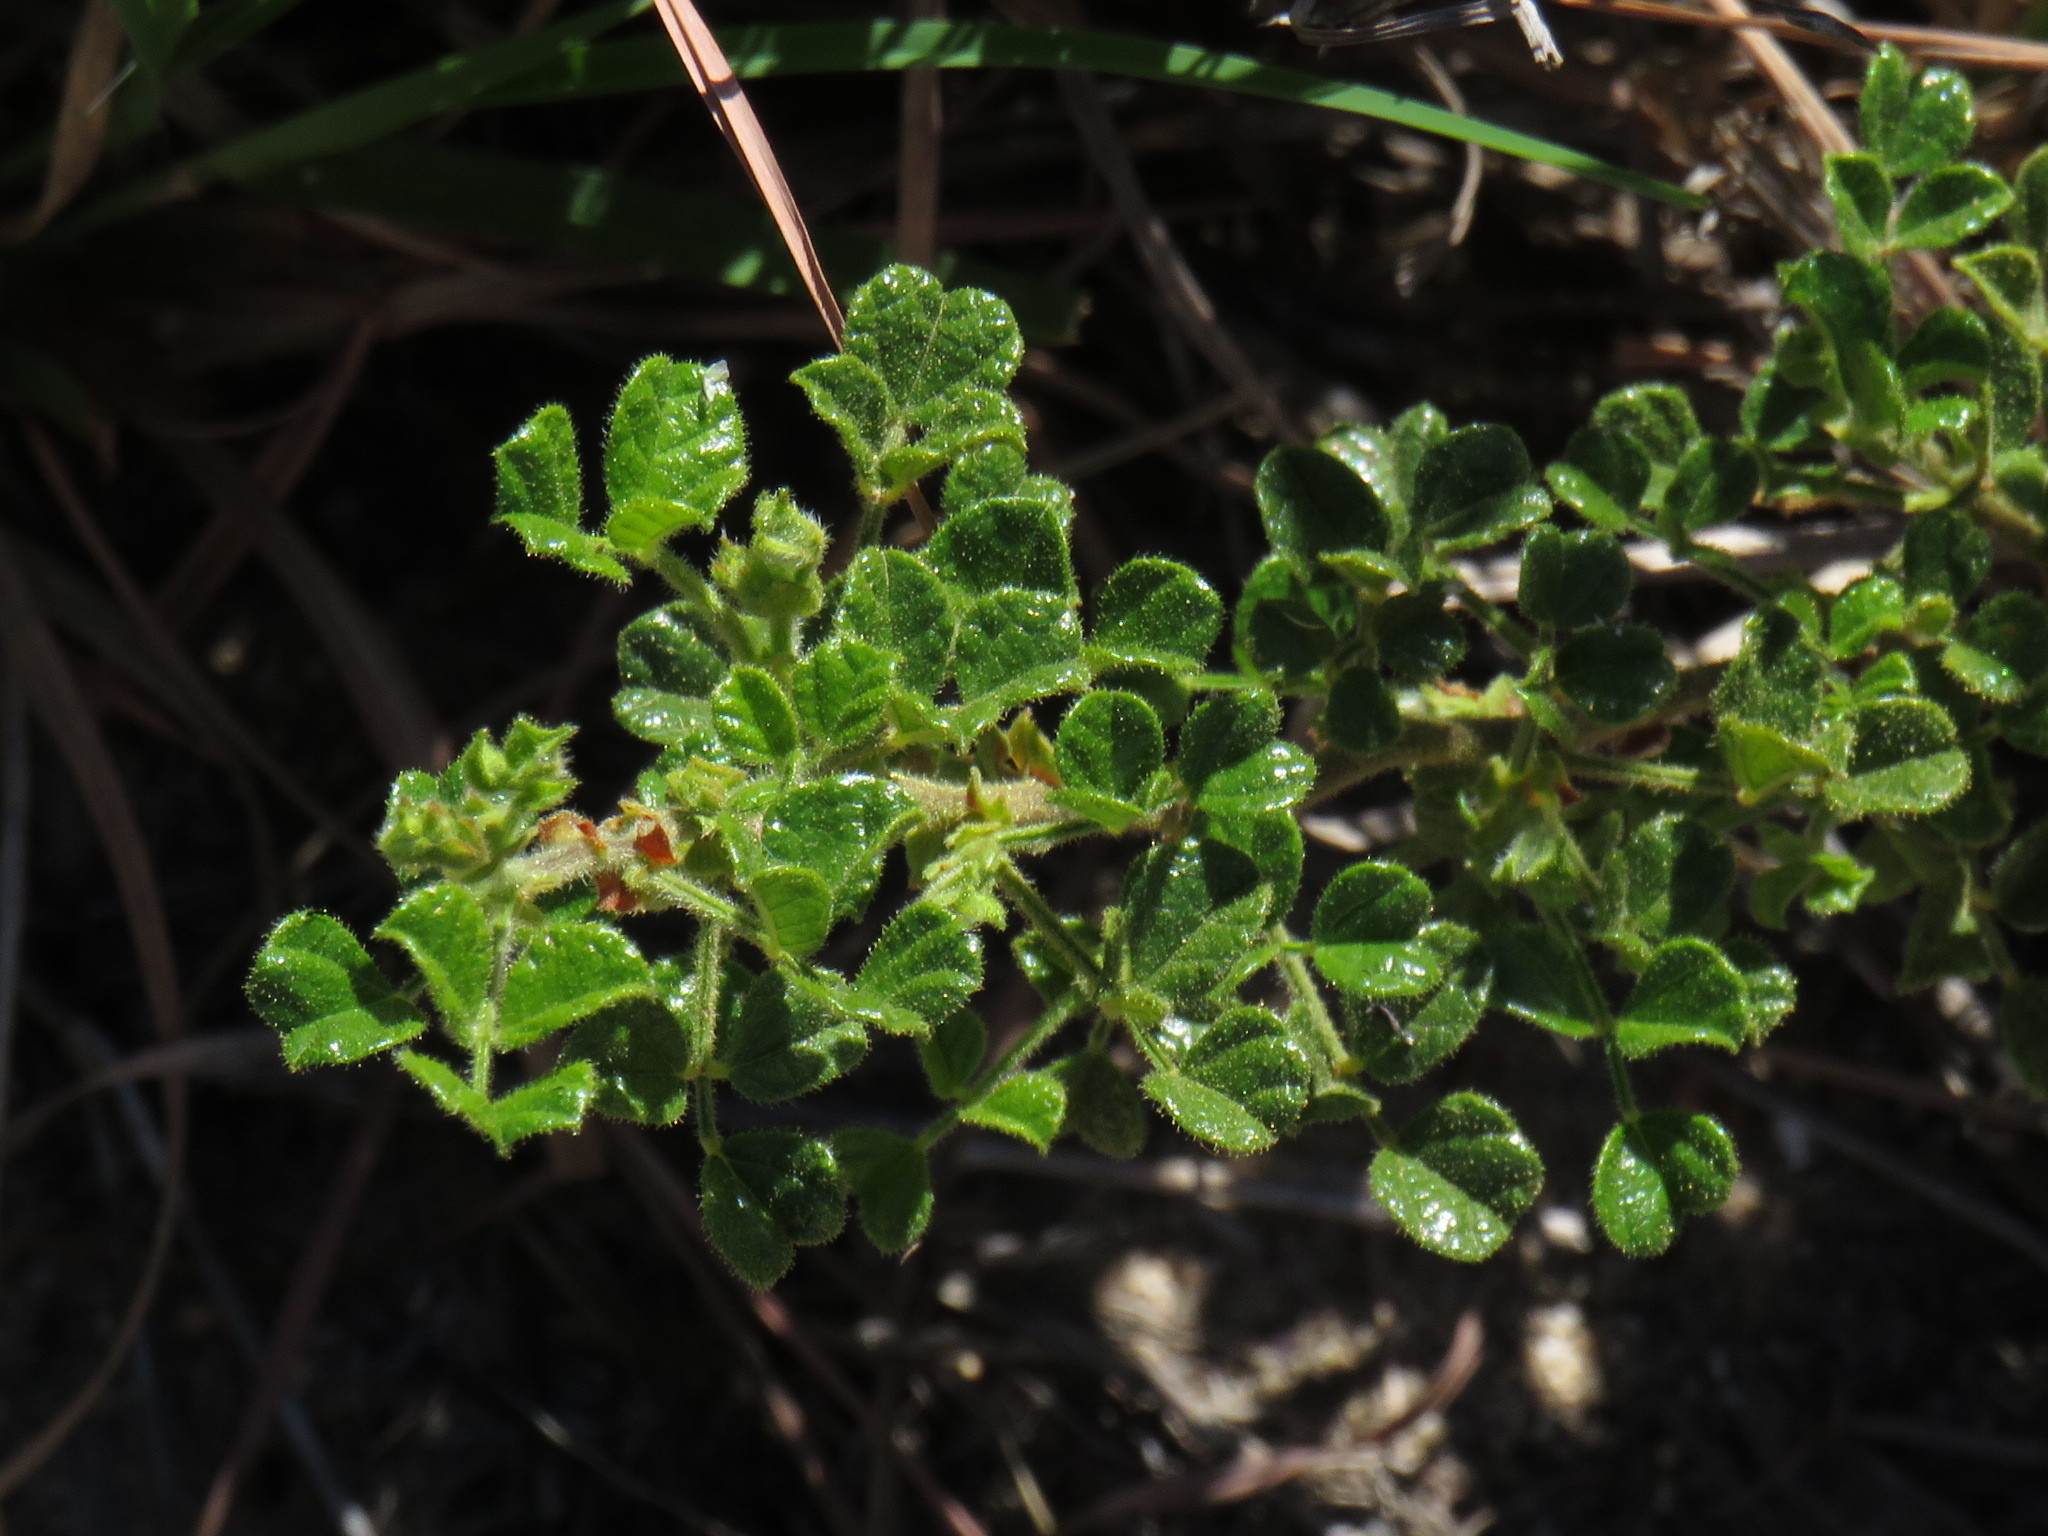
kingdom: Plantae
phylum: Tracheophyta
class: Magnoliopsida
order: Fabales
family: Fabaceae
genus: Bolusafra
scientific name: Bolusafra bituminosa
